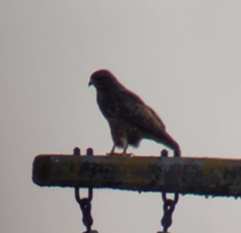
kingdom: Animalia
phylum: Chordata
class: Aves
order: Accipitriformes
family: Accipitridae
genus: Buteo
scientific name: Buteo buteo
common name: Common buzzard
